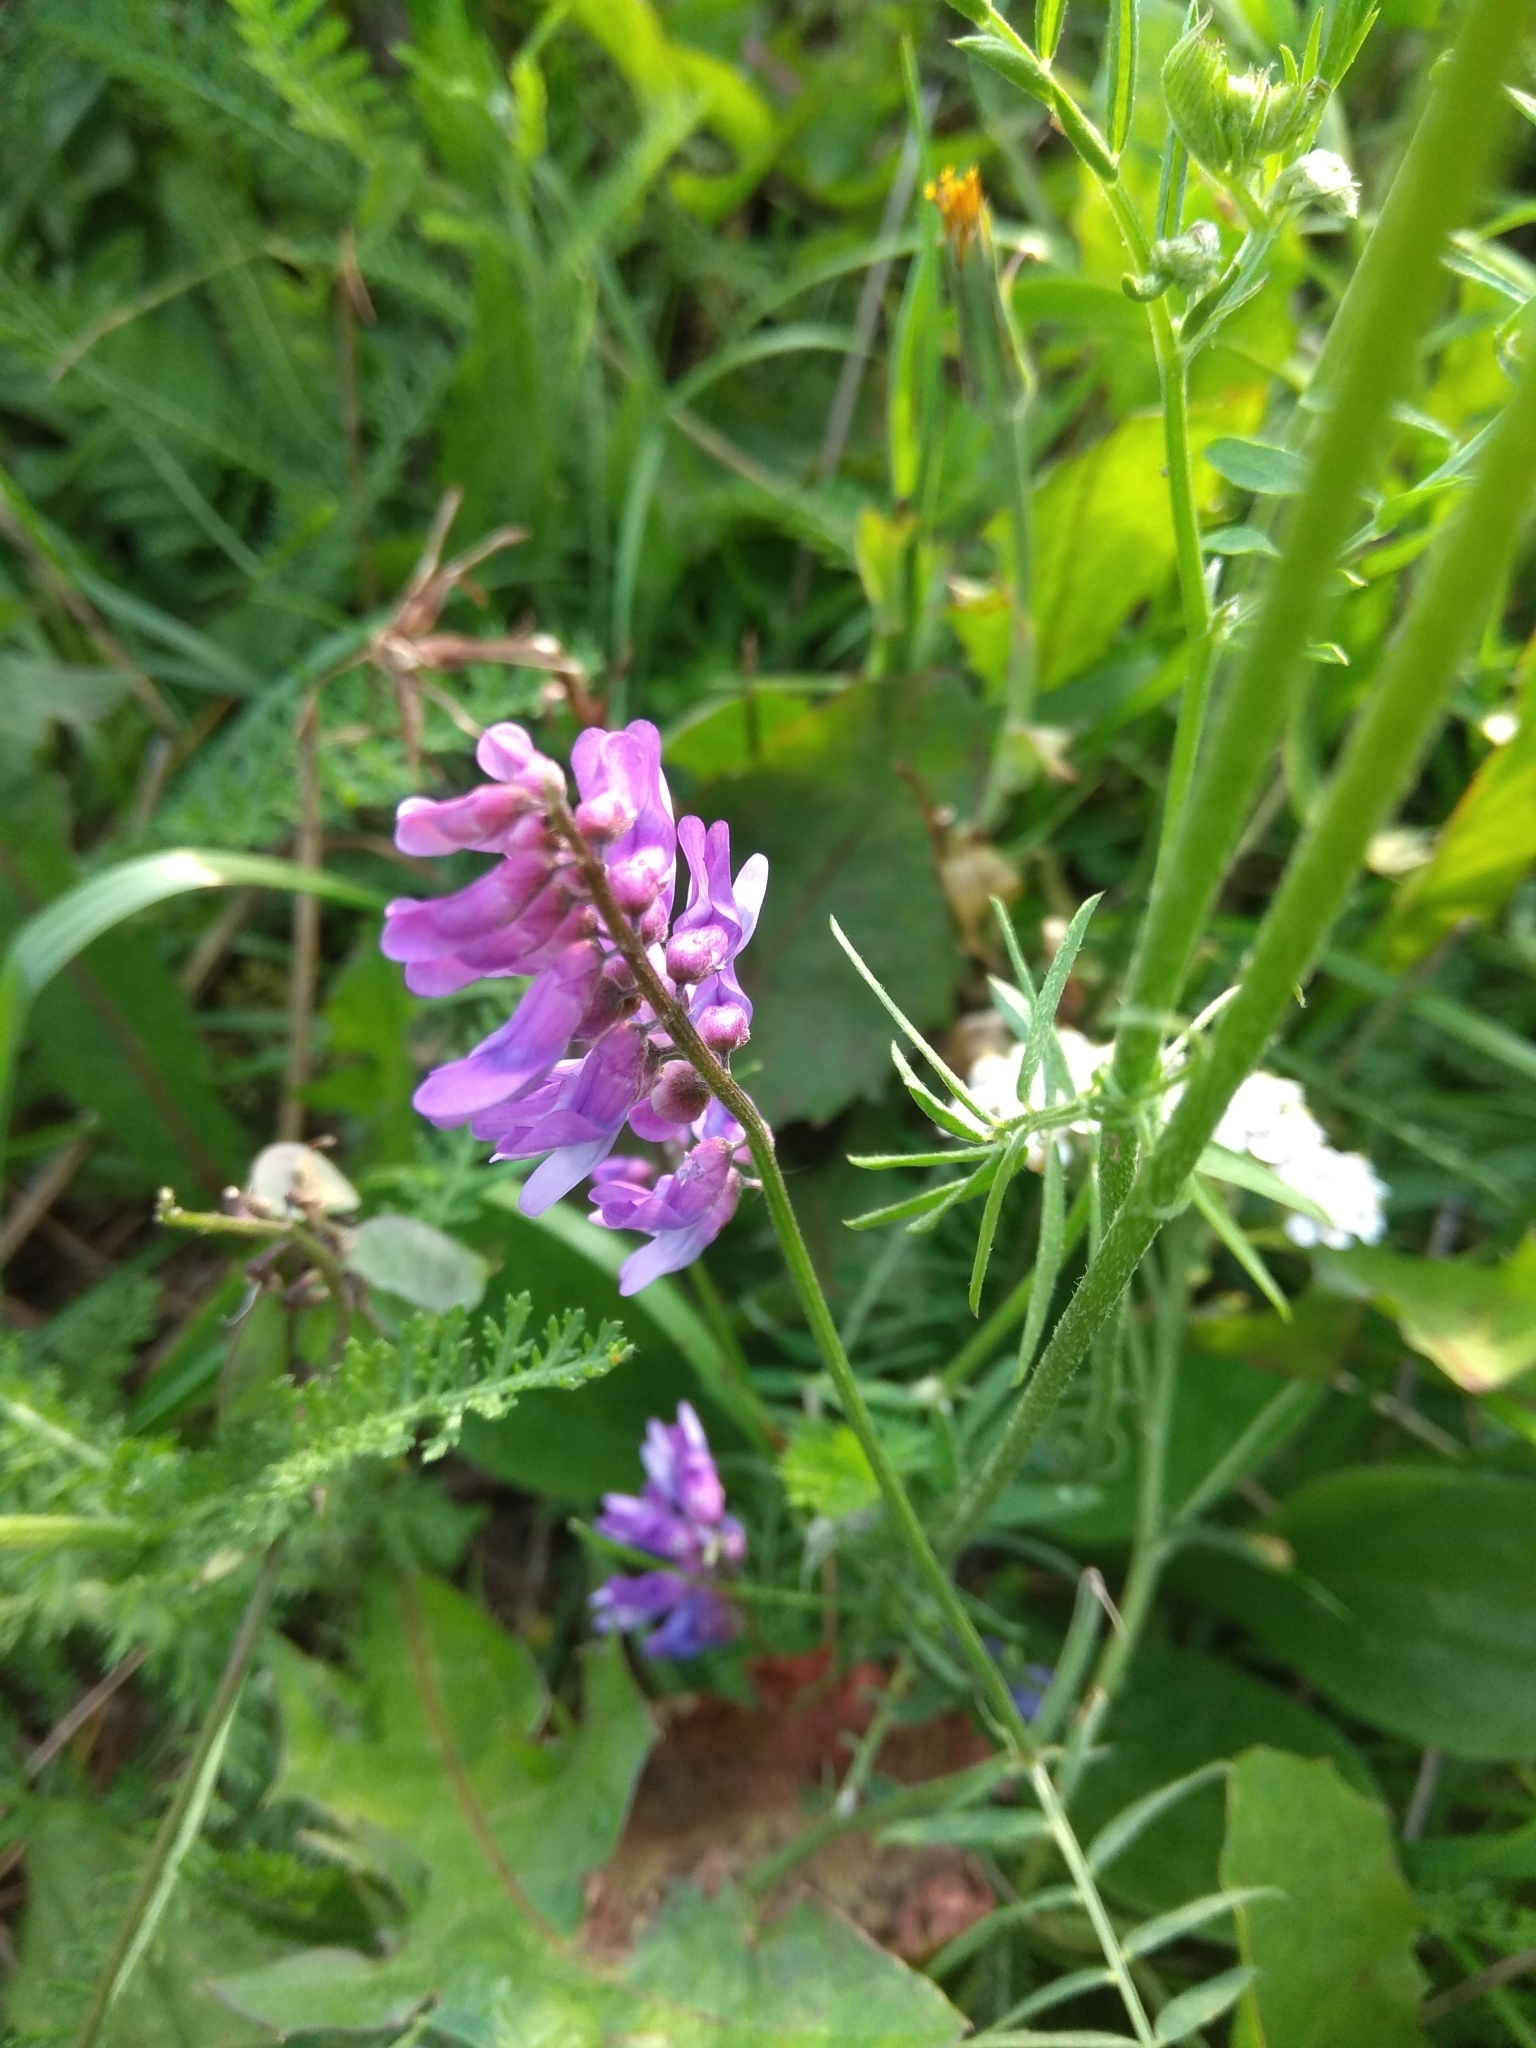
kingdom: Plantae
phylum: Tracheophyta
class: Magnoliopsida
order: Fabales
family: Fabaceae
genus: Vicia
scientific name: Vicia cracca
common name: Bird vetch
